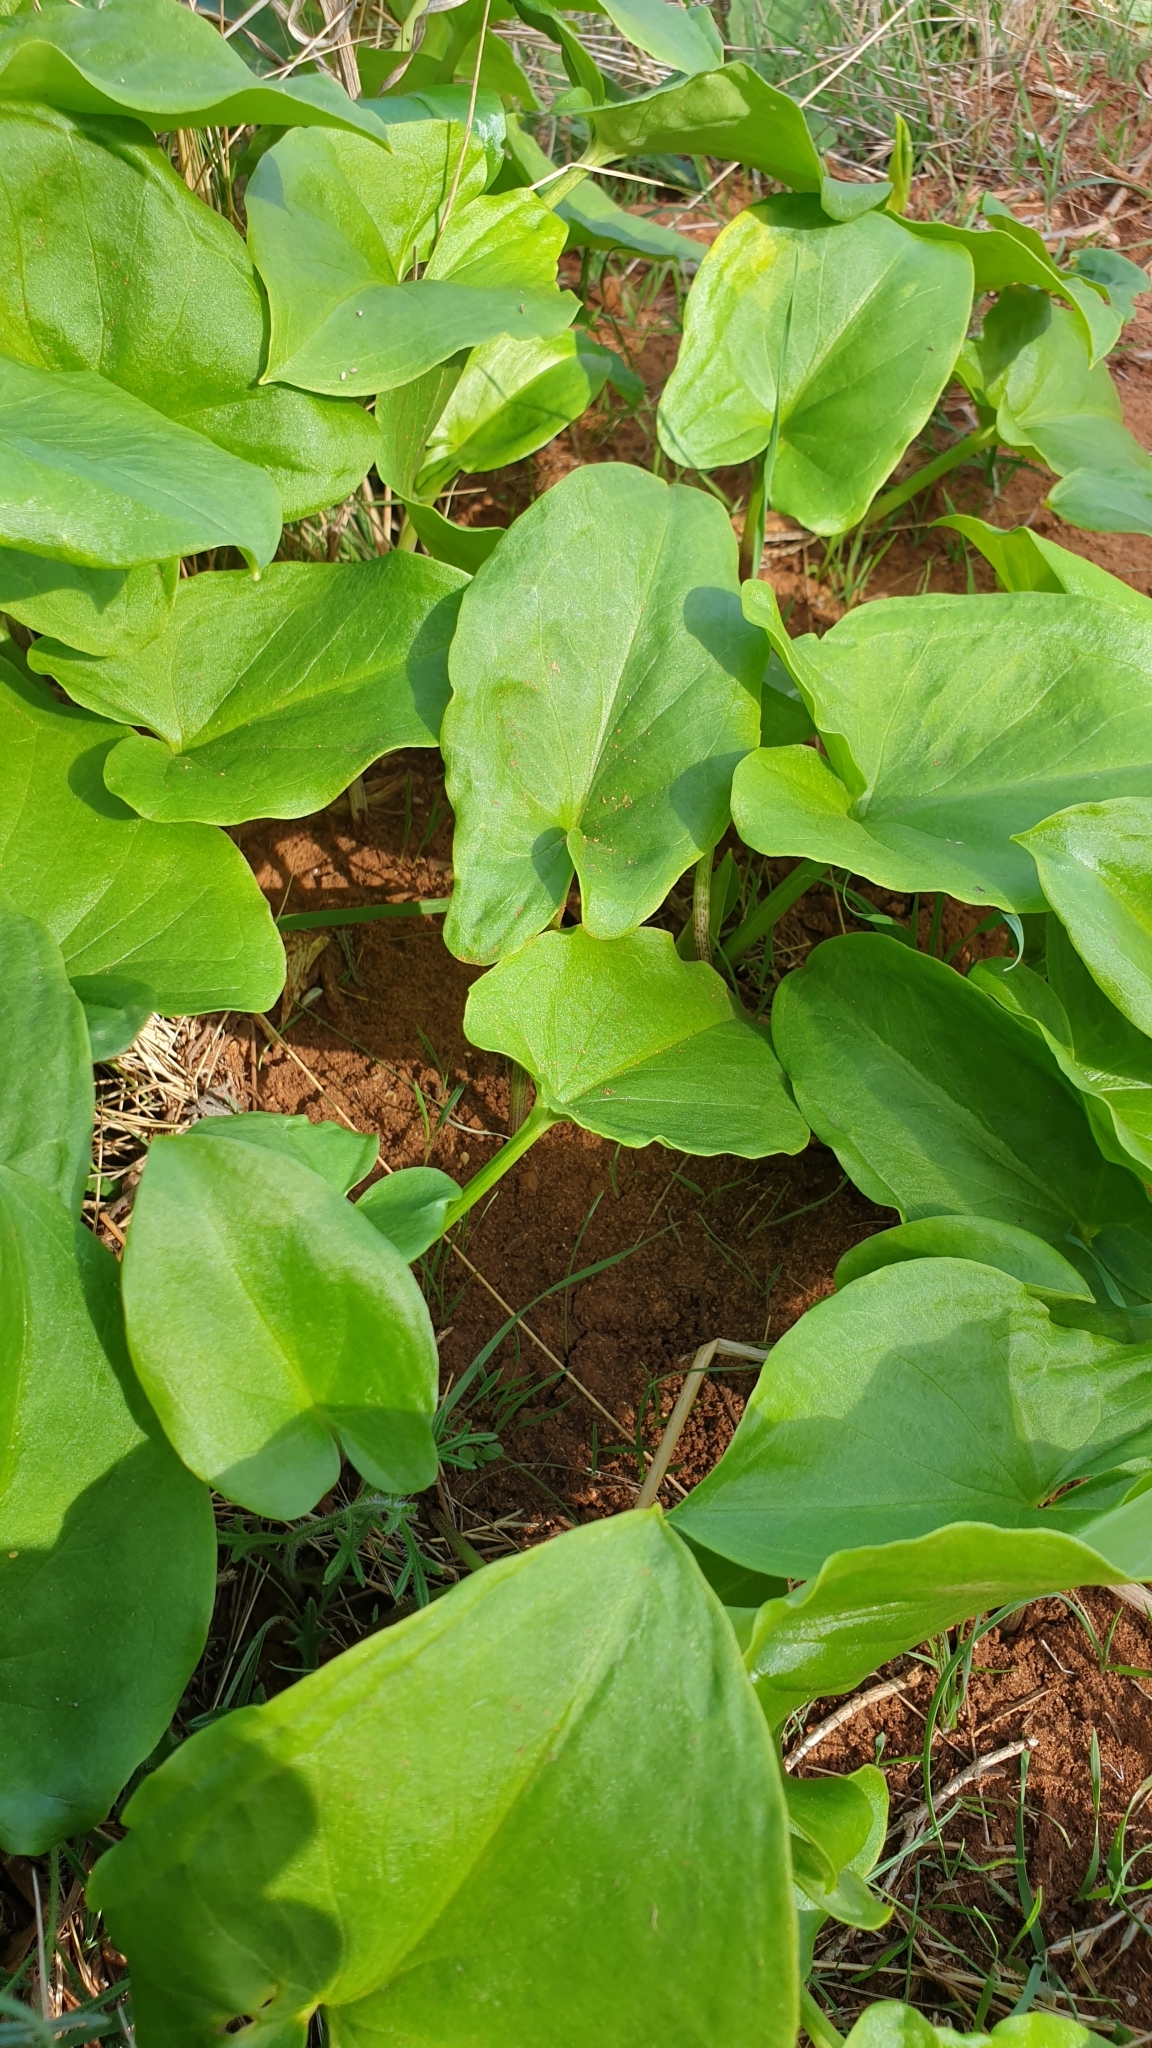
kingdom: Plantae
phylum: Tracheophyta
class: Liliopsida
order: Alismatales
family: Araceae
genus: Arisarum
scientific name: Arisarum vulgare
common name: Common arisarum
